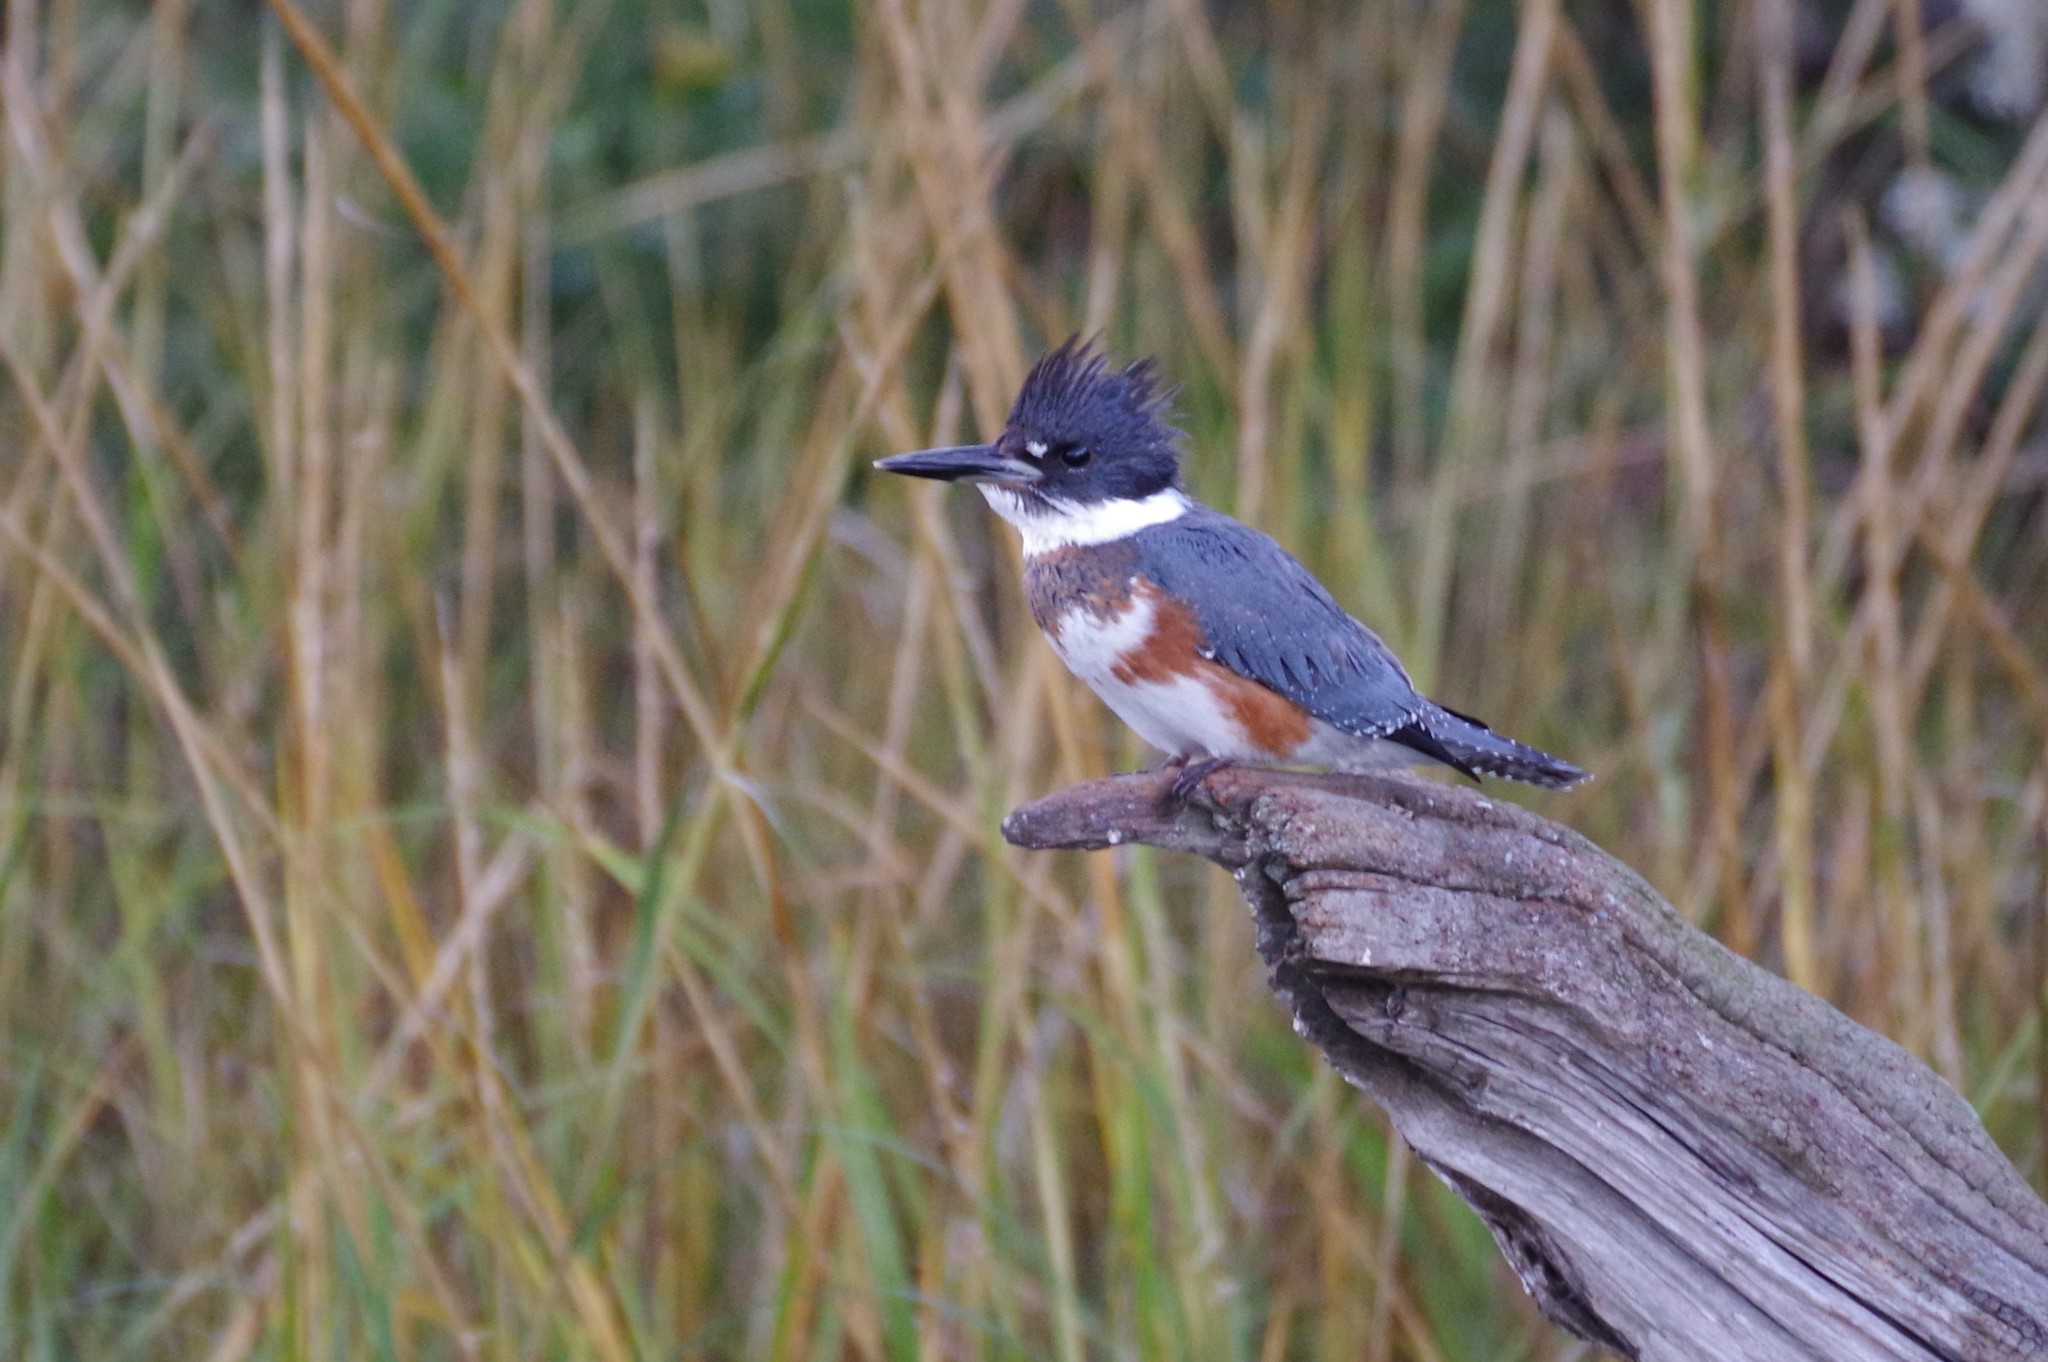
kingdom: Animalia
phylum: Chordata
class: Aves
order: Coraciiformes
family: Alcedinidae
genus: Megaceryle
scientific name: Megaceryle alcyon
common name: Belted kingfisher
